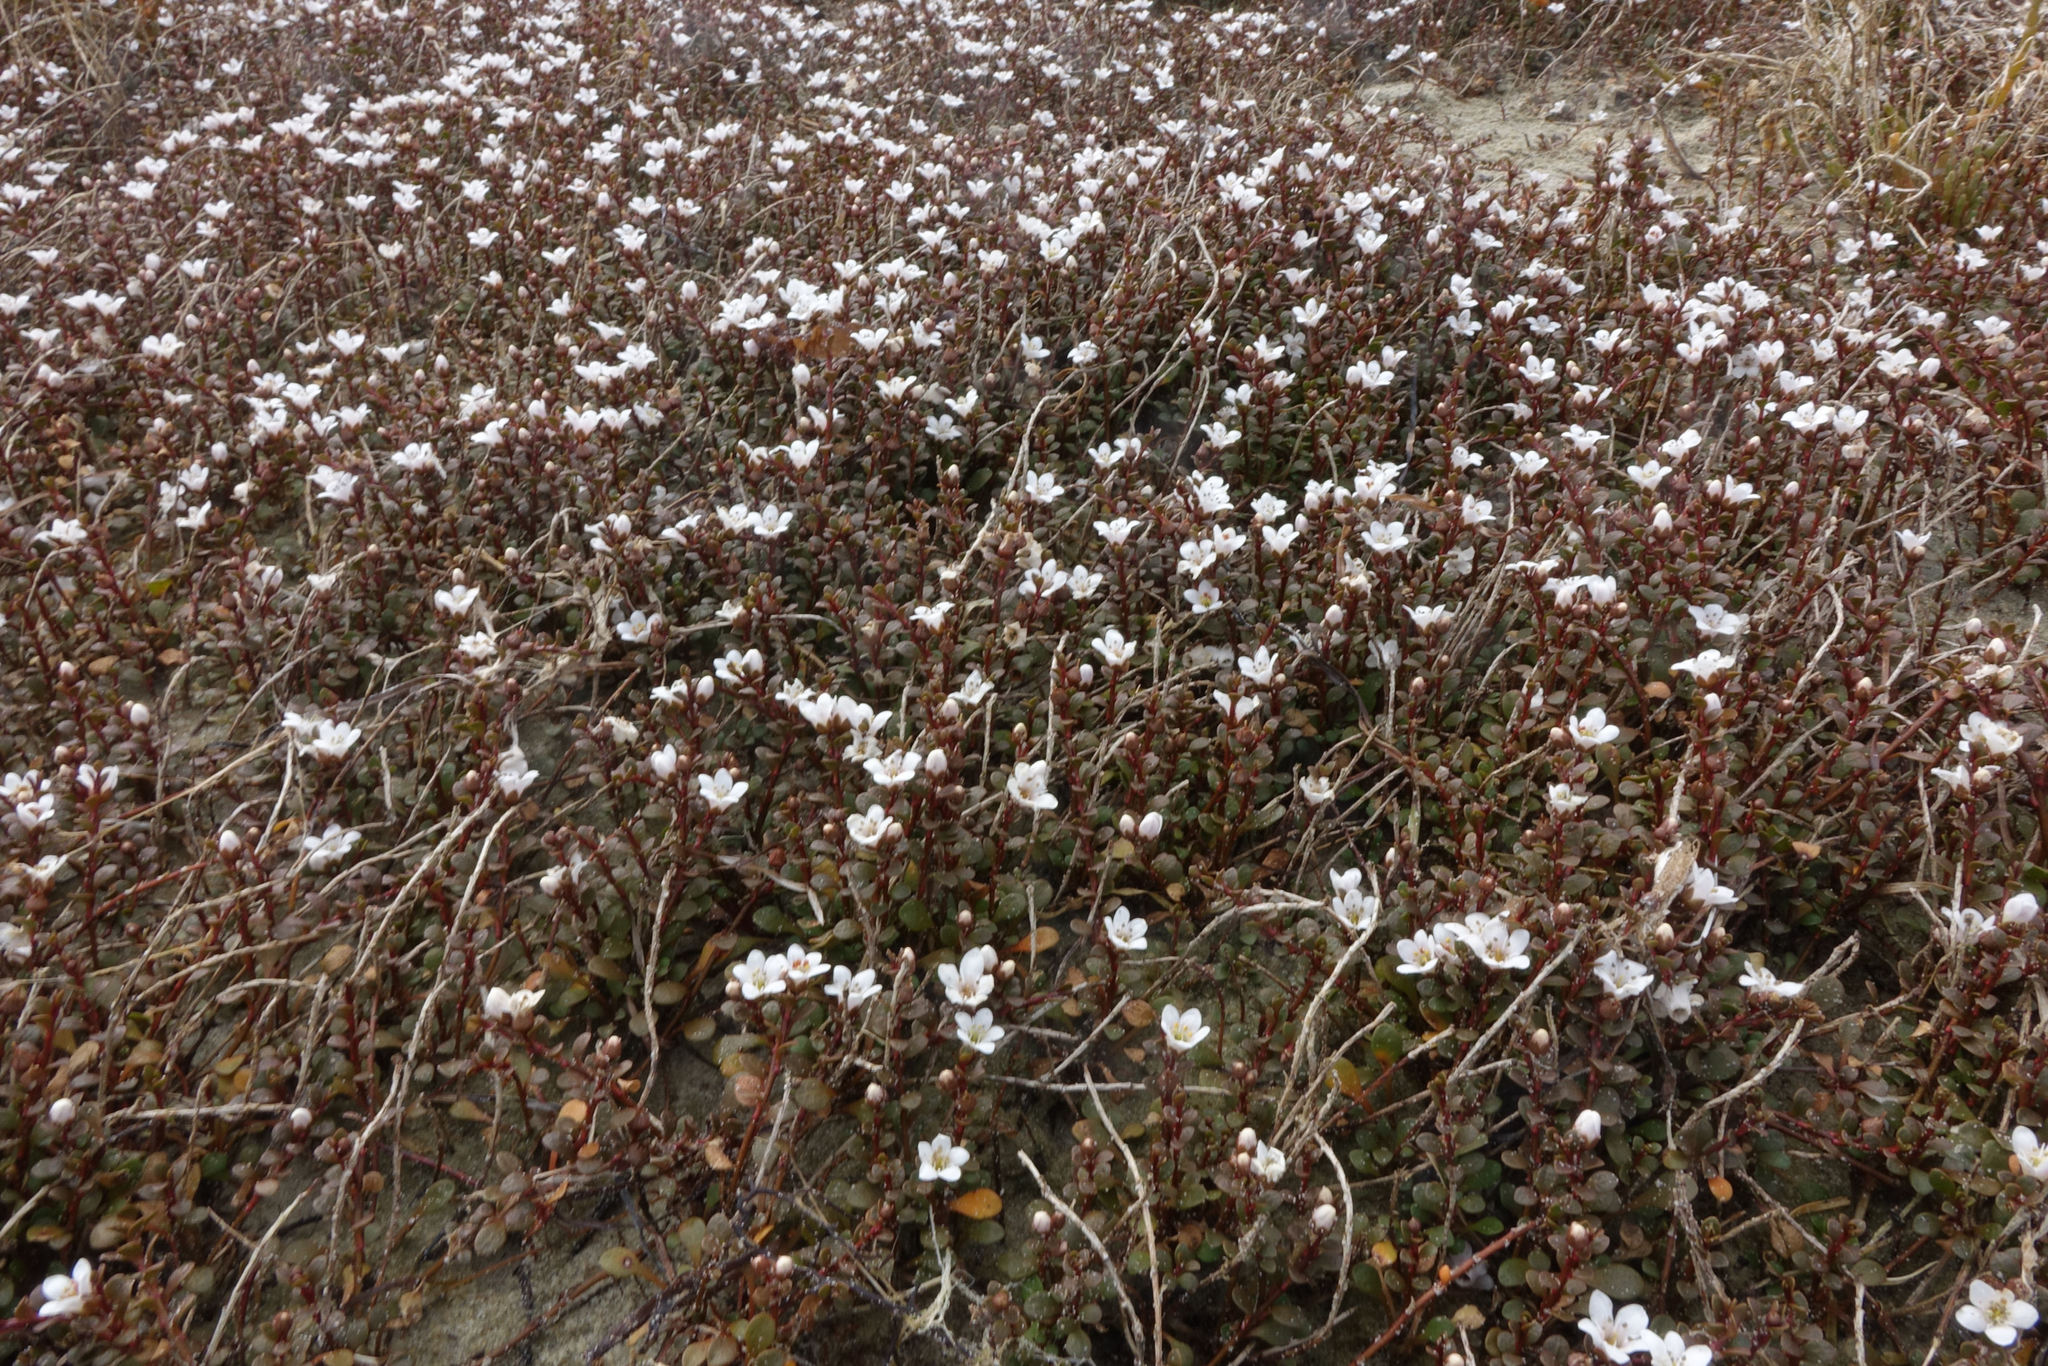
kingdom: Plantae
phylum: Tracheophyta
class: Magnoliopsida
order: Ericales
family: Primulaceae
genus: Samolus
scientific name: Samolus repens
